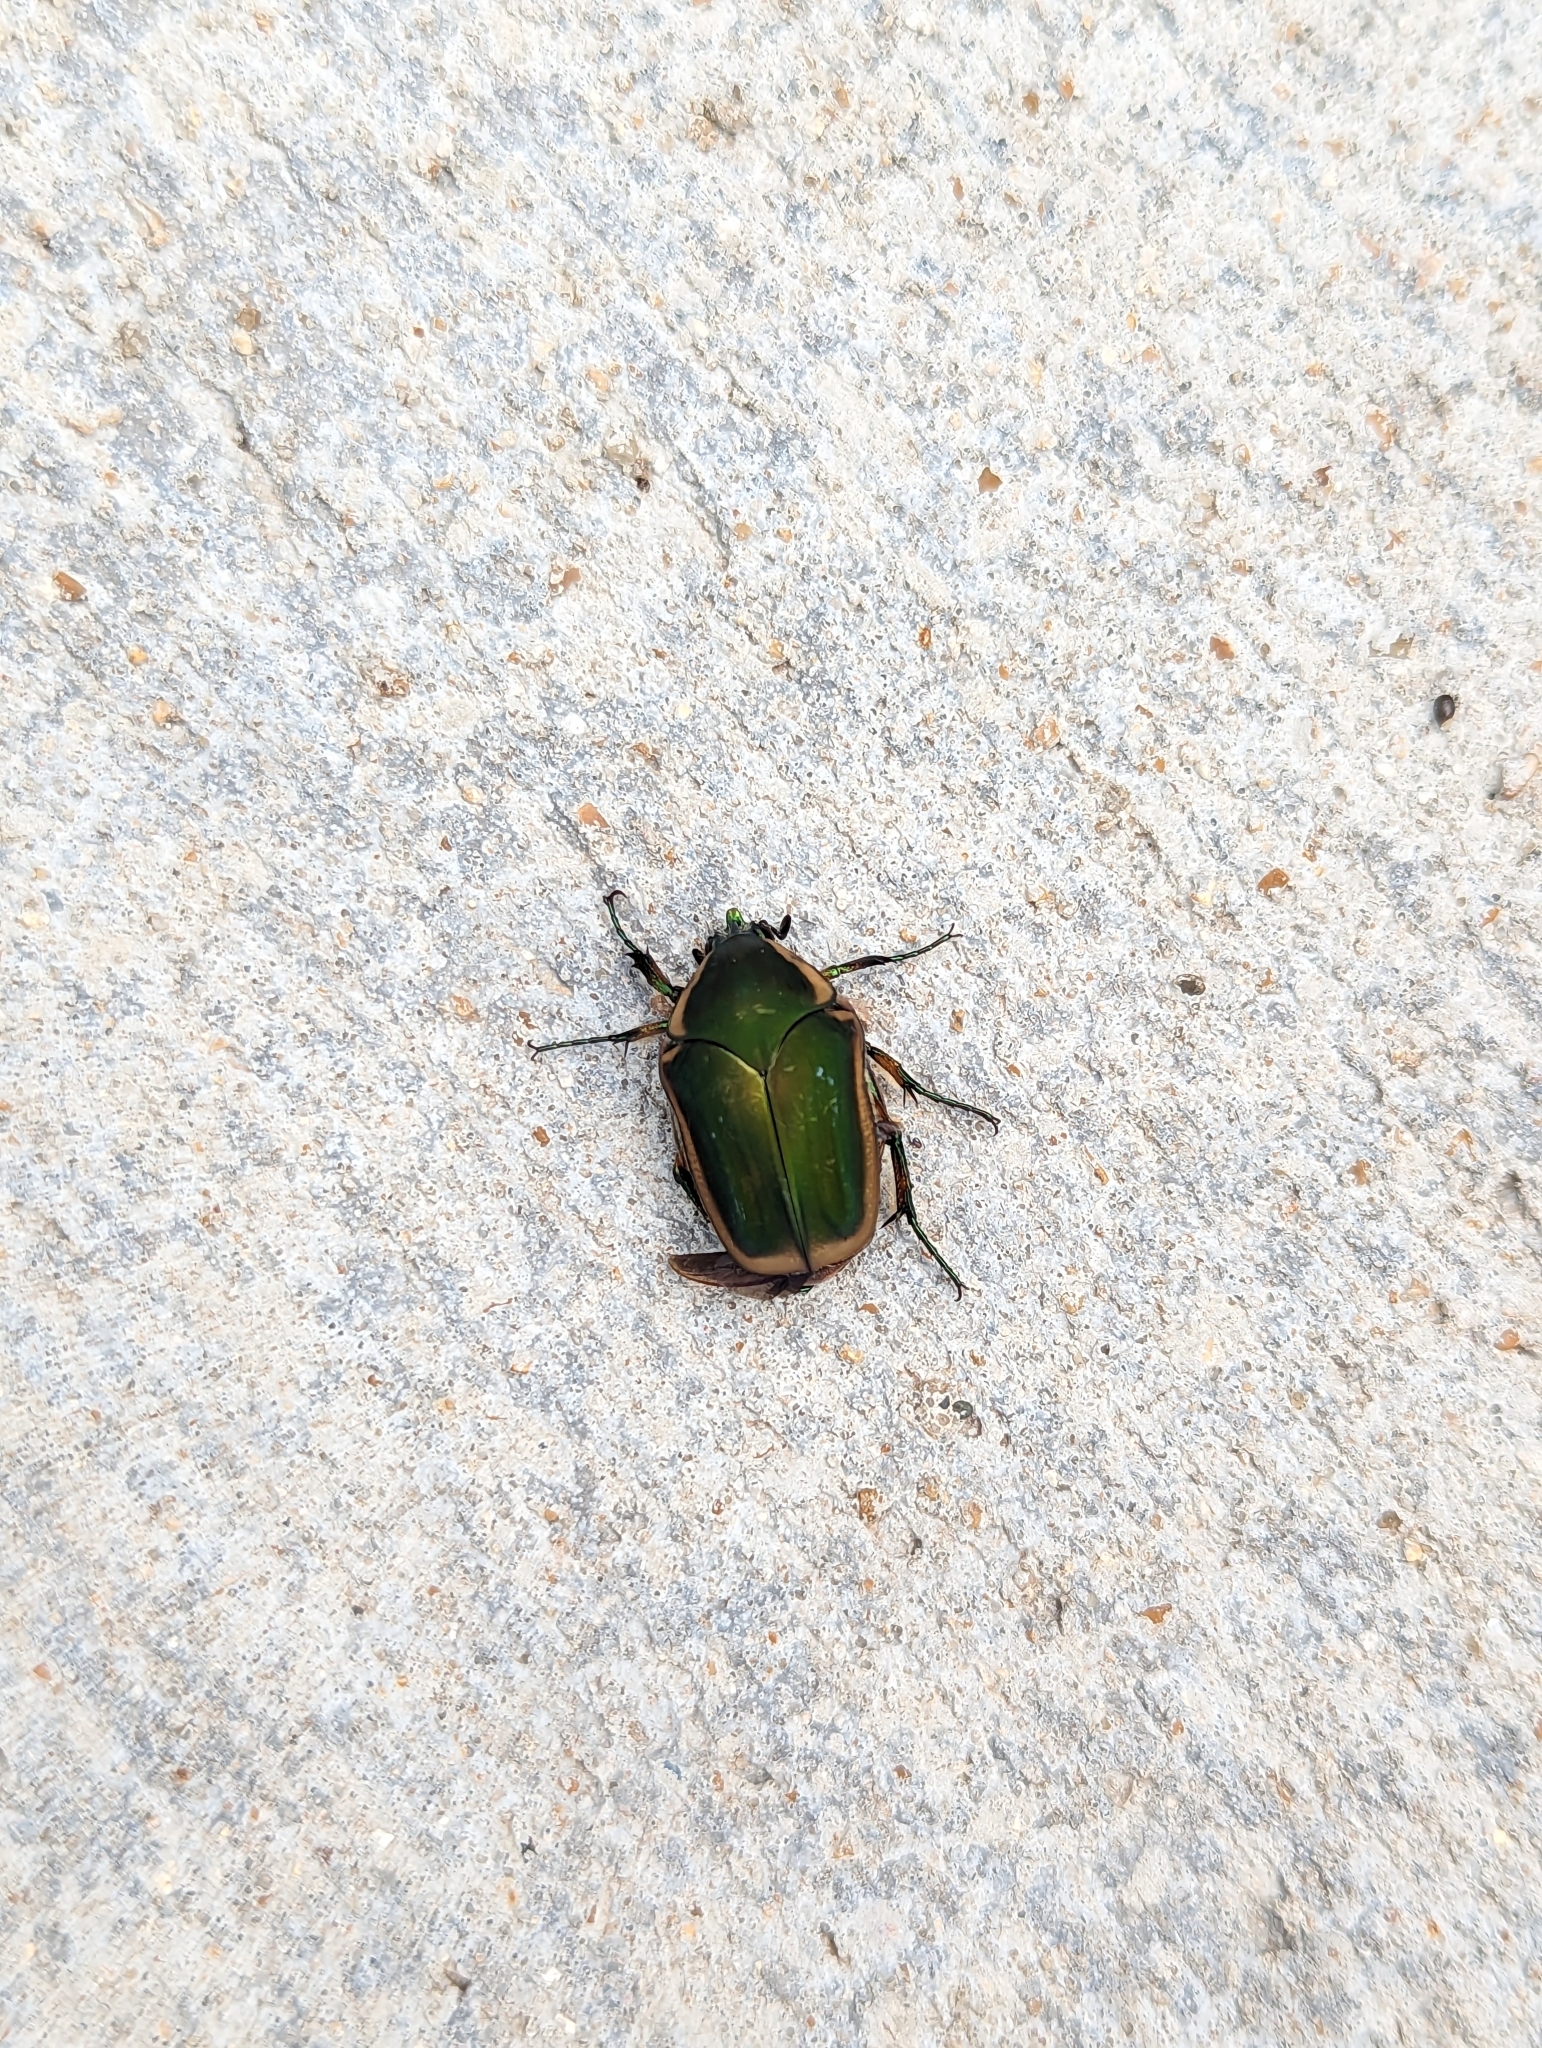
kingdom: Animalia
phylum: Arthropoda
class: Insecta
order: Coleoptera
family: Scarabaeidae
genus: Cotinis
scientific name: Cotinis nitida
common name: Common green june beetle
